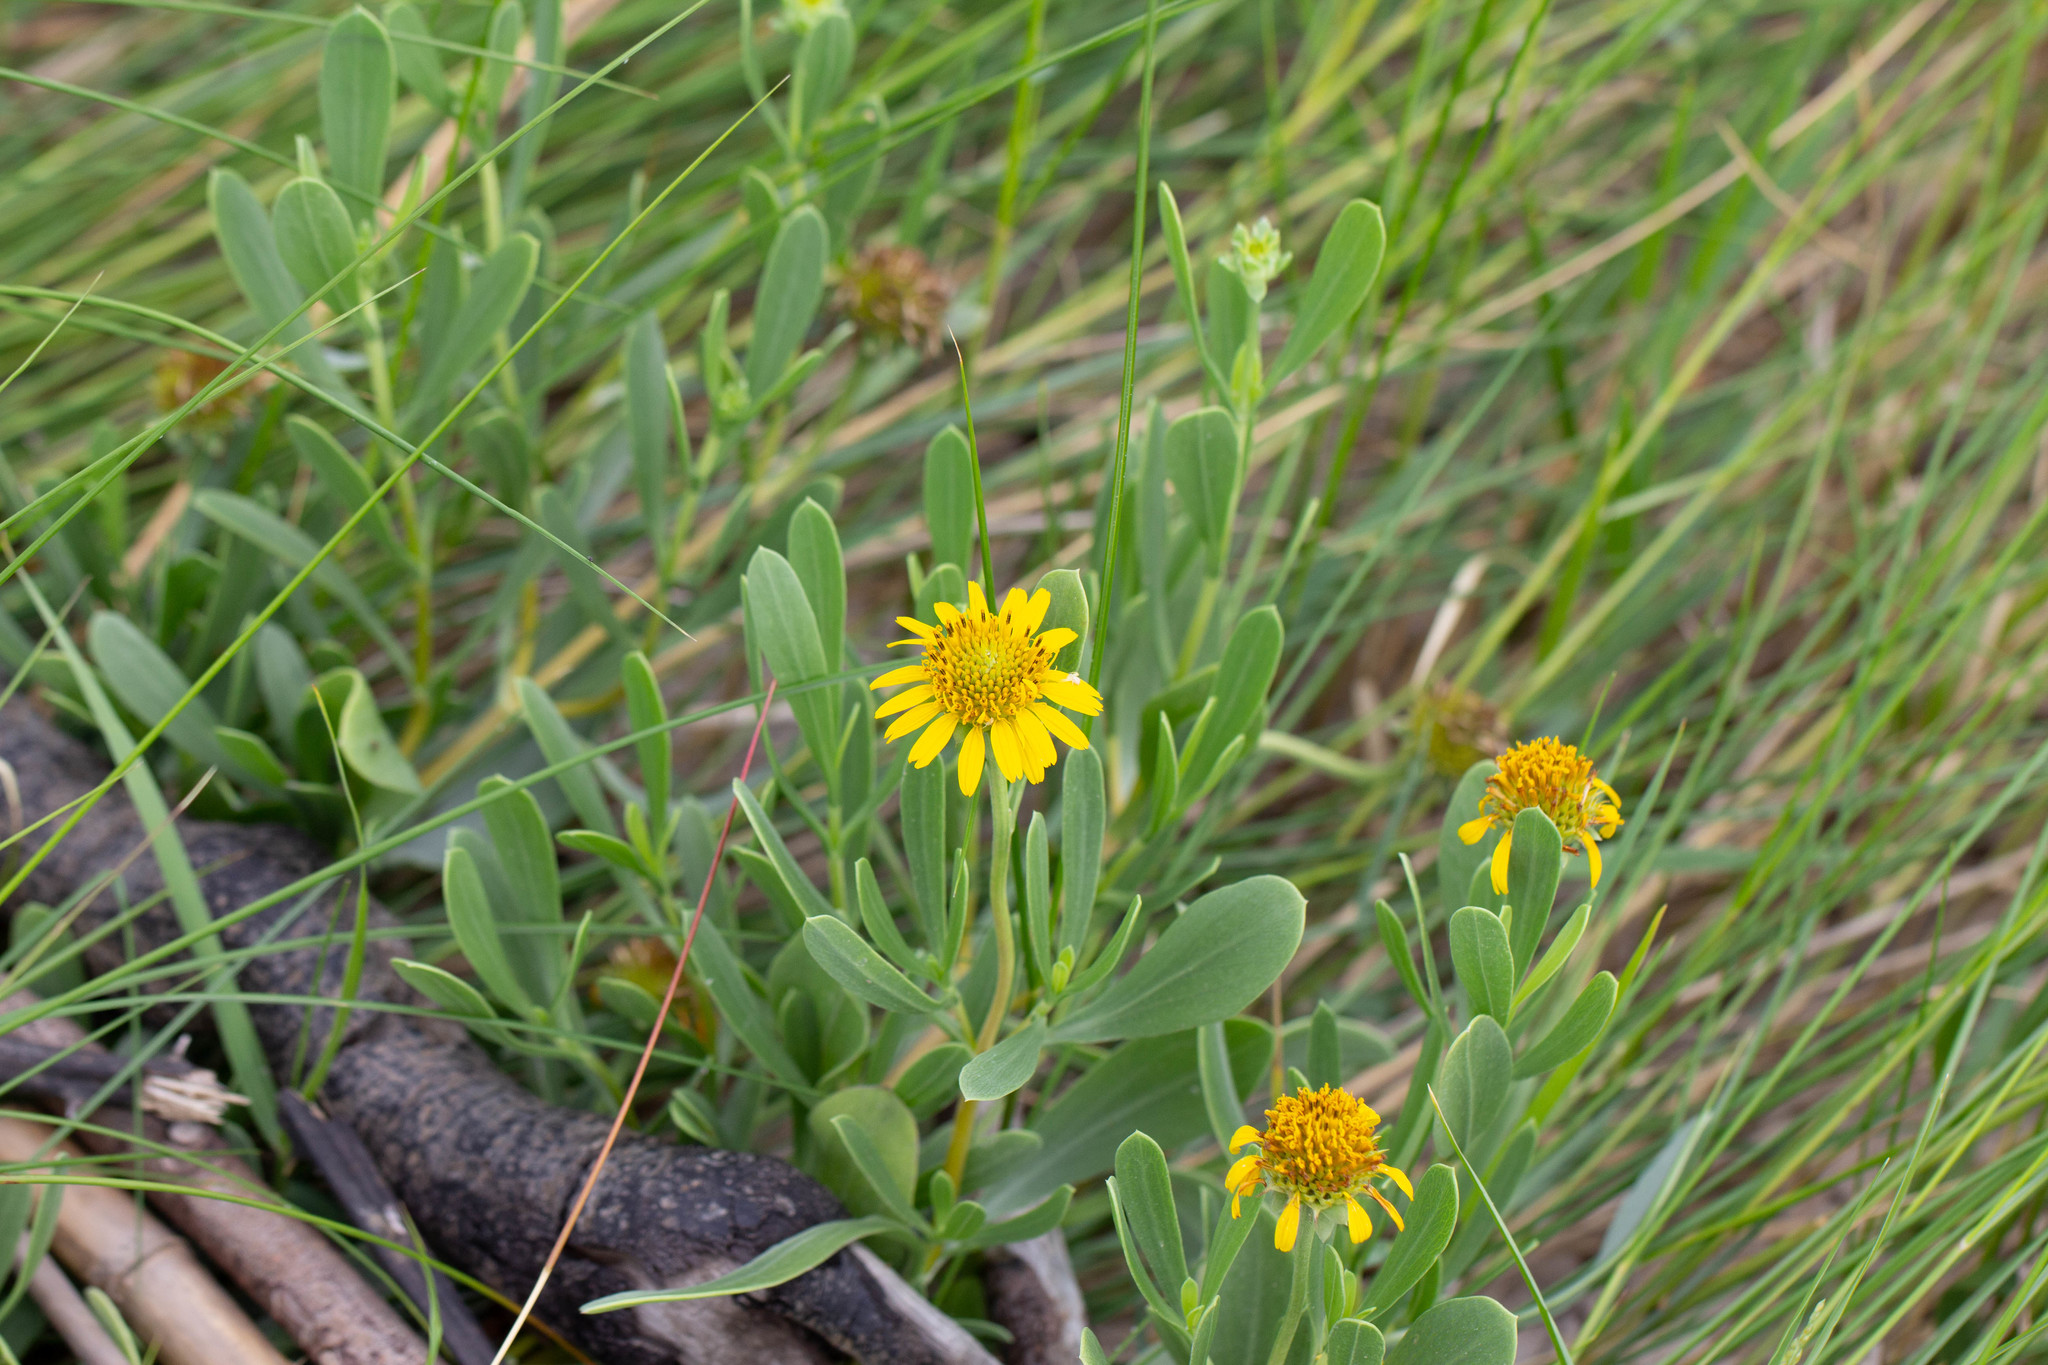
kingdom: Plantae
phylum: Tracheophyta
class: Magnoliopsida
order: Asterales
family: Asteraceae
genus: Borrichia
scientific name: Borrichia frutescens
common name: Sea oxeye
